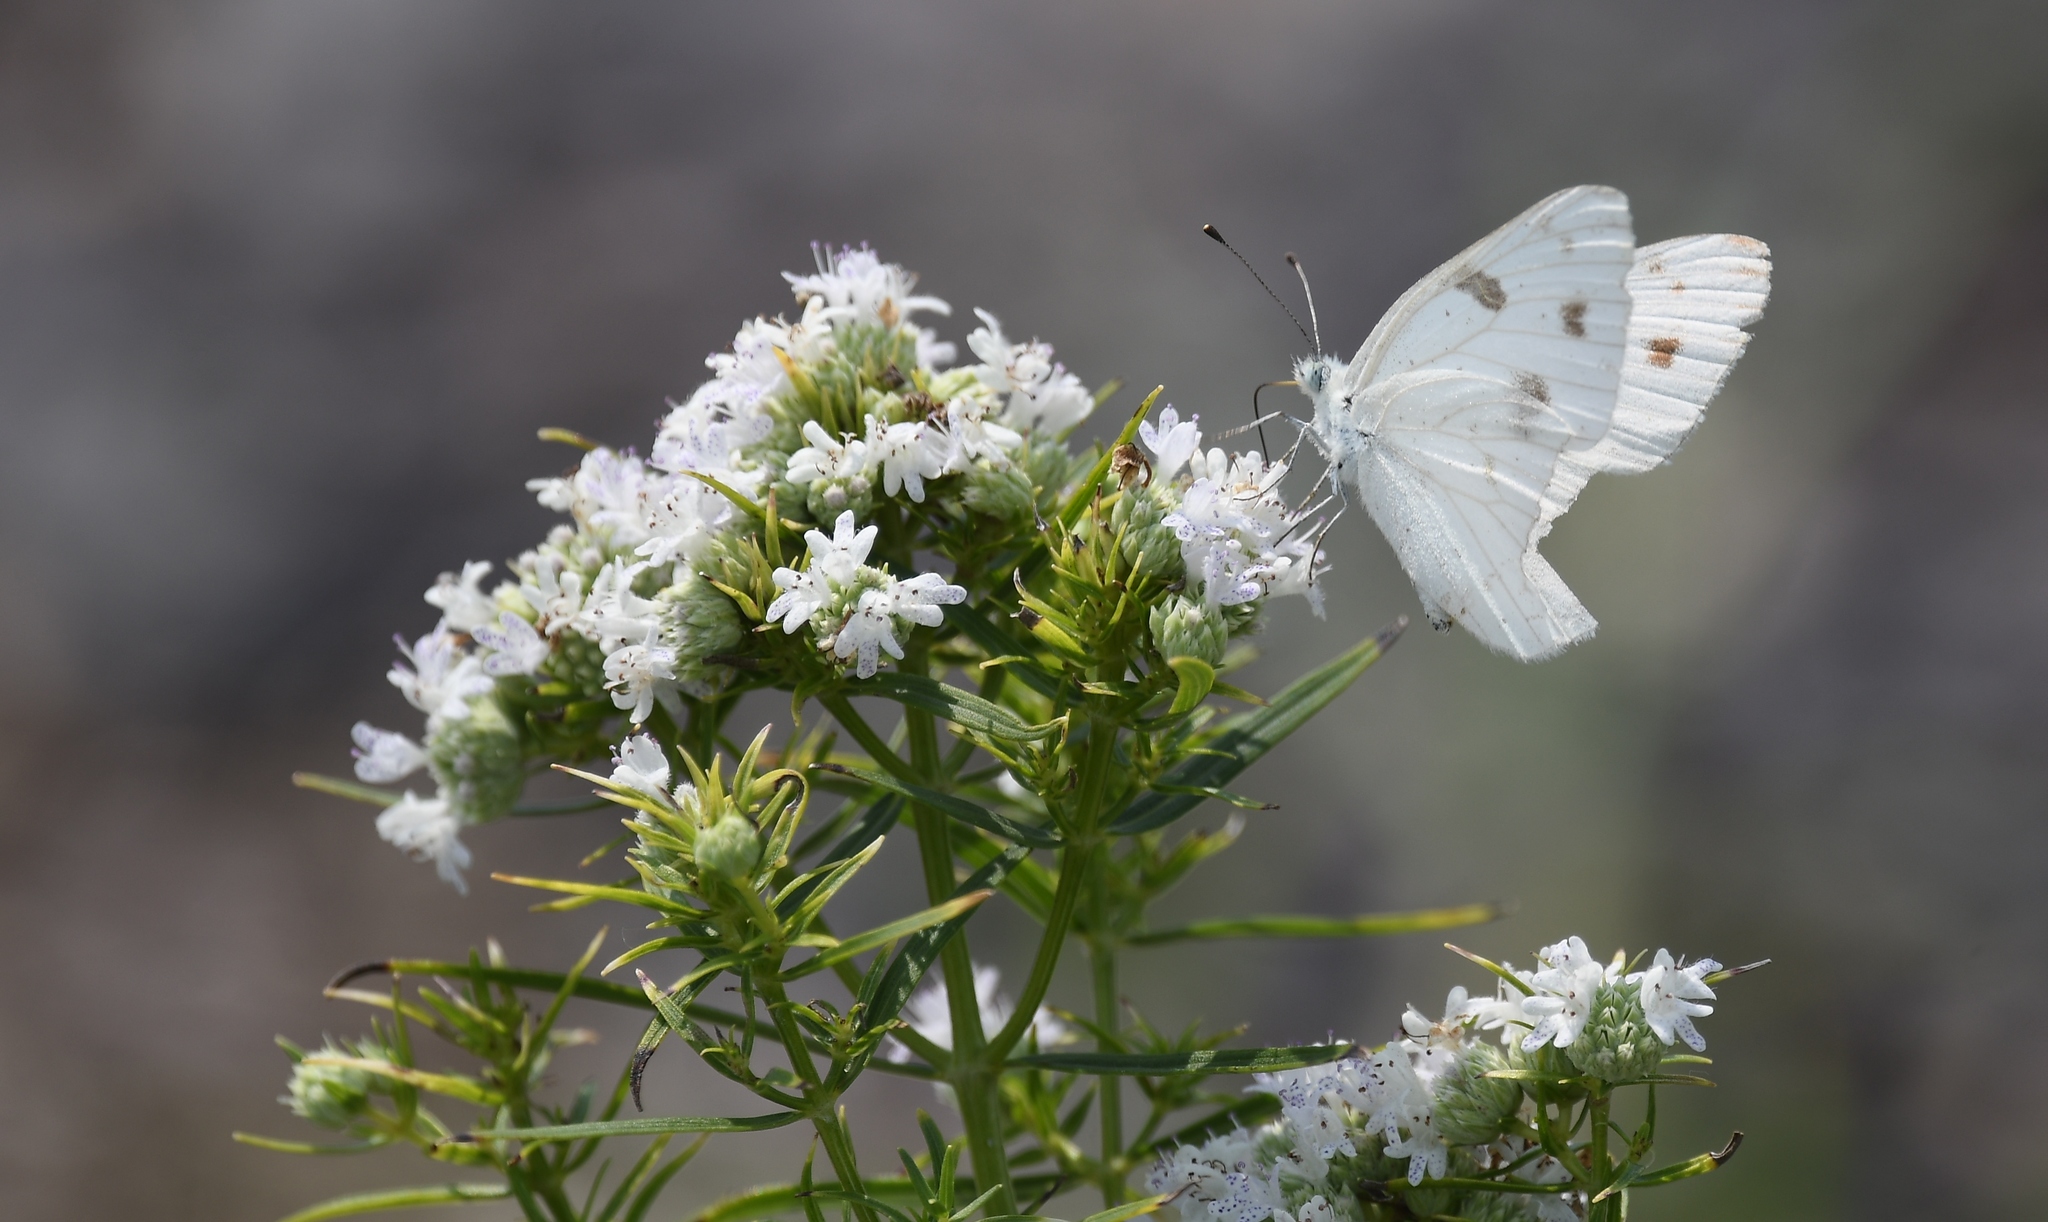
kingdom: Animalia
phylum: Arthropoda
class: Insecta
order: Lepidoptera
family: Pieridae
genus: Pontia
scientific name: Pontia protodice
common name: Checkered white
